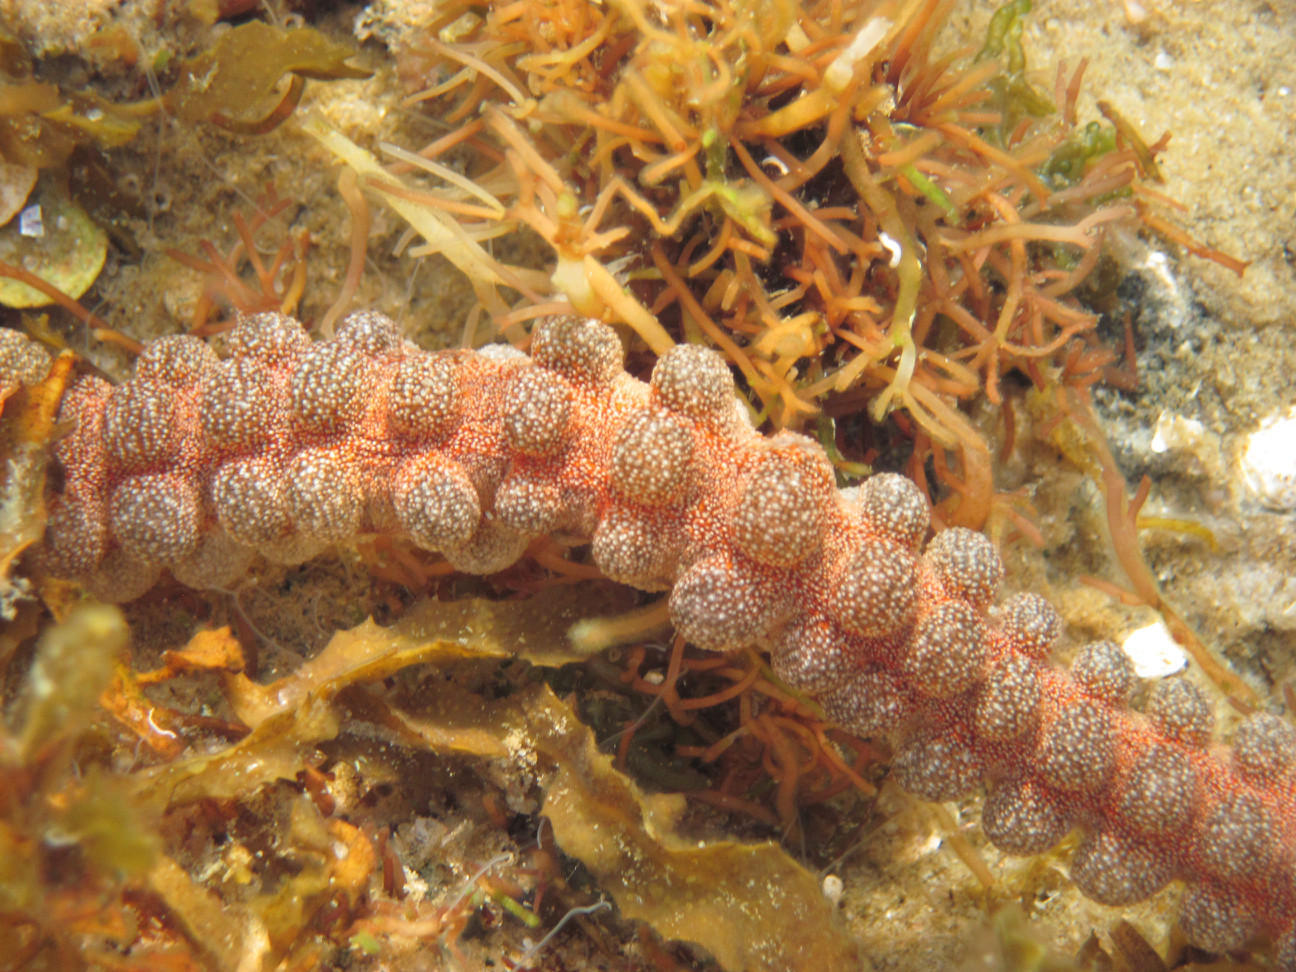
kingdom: Animalia
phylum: Echinodermata
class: Holothuroidea
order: Apodida
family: Synaptidae
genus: Synapta
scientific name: Synapta maculata
